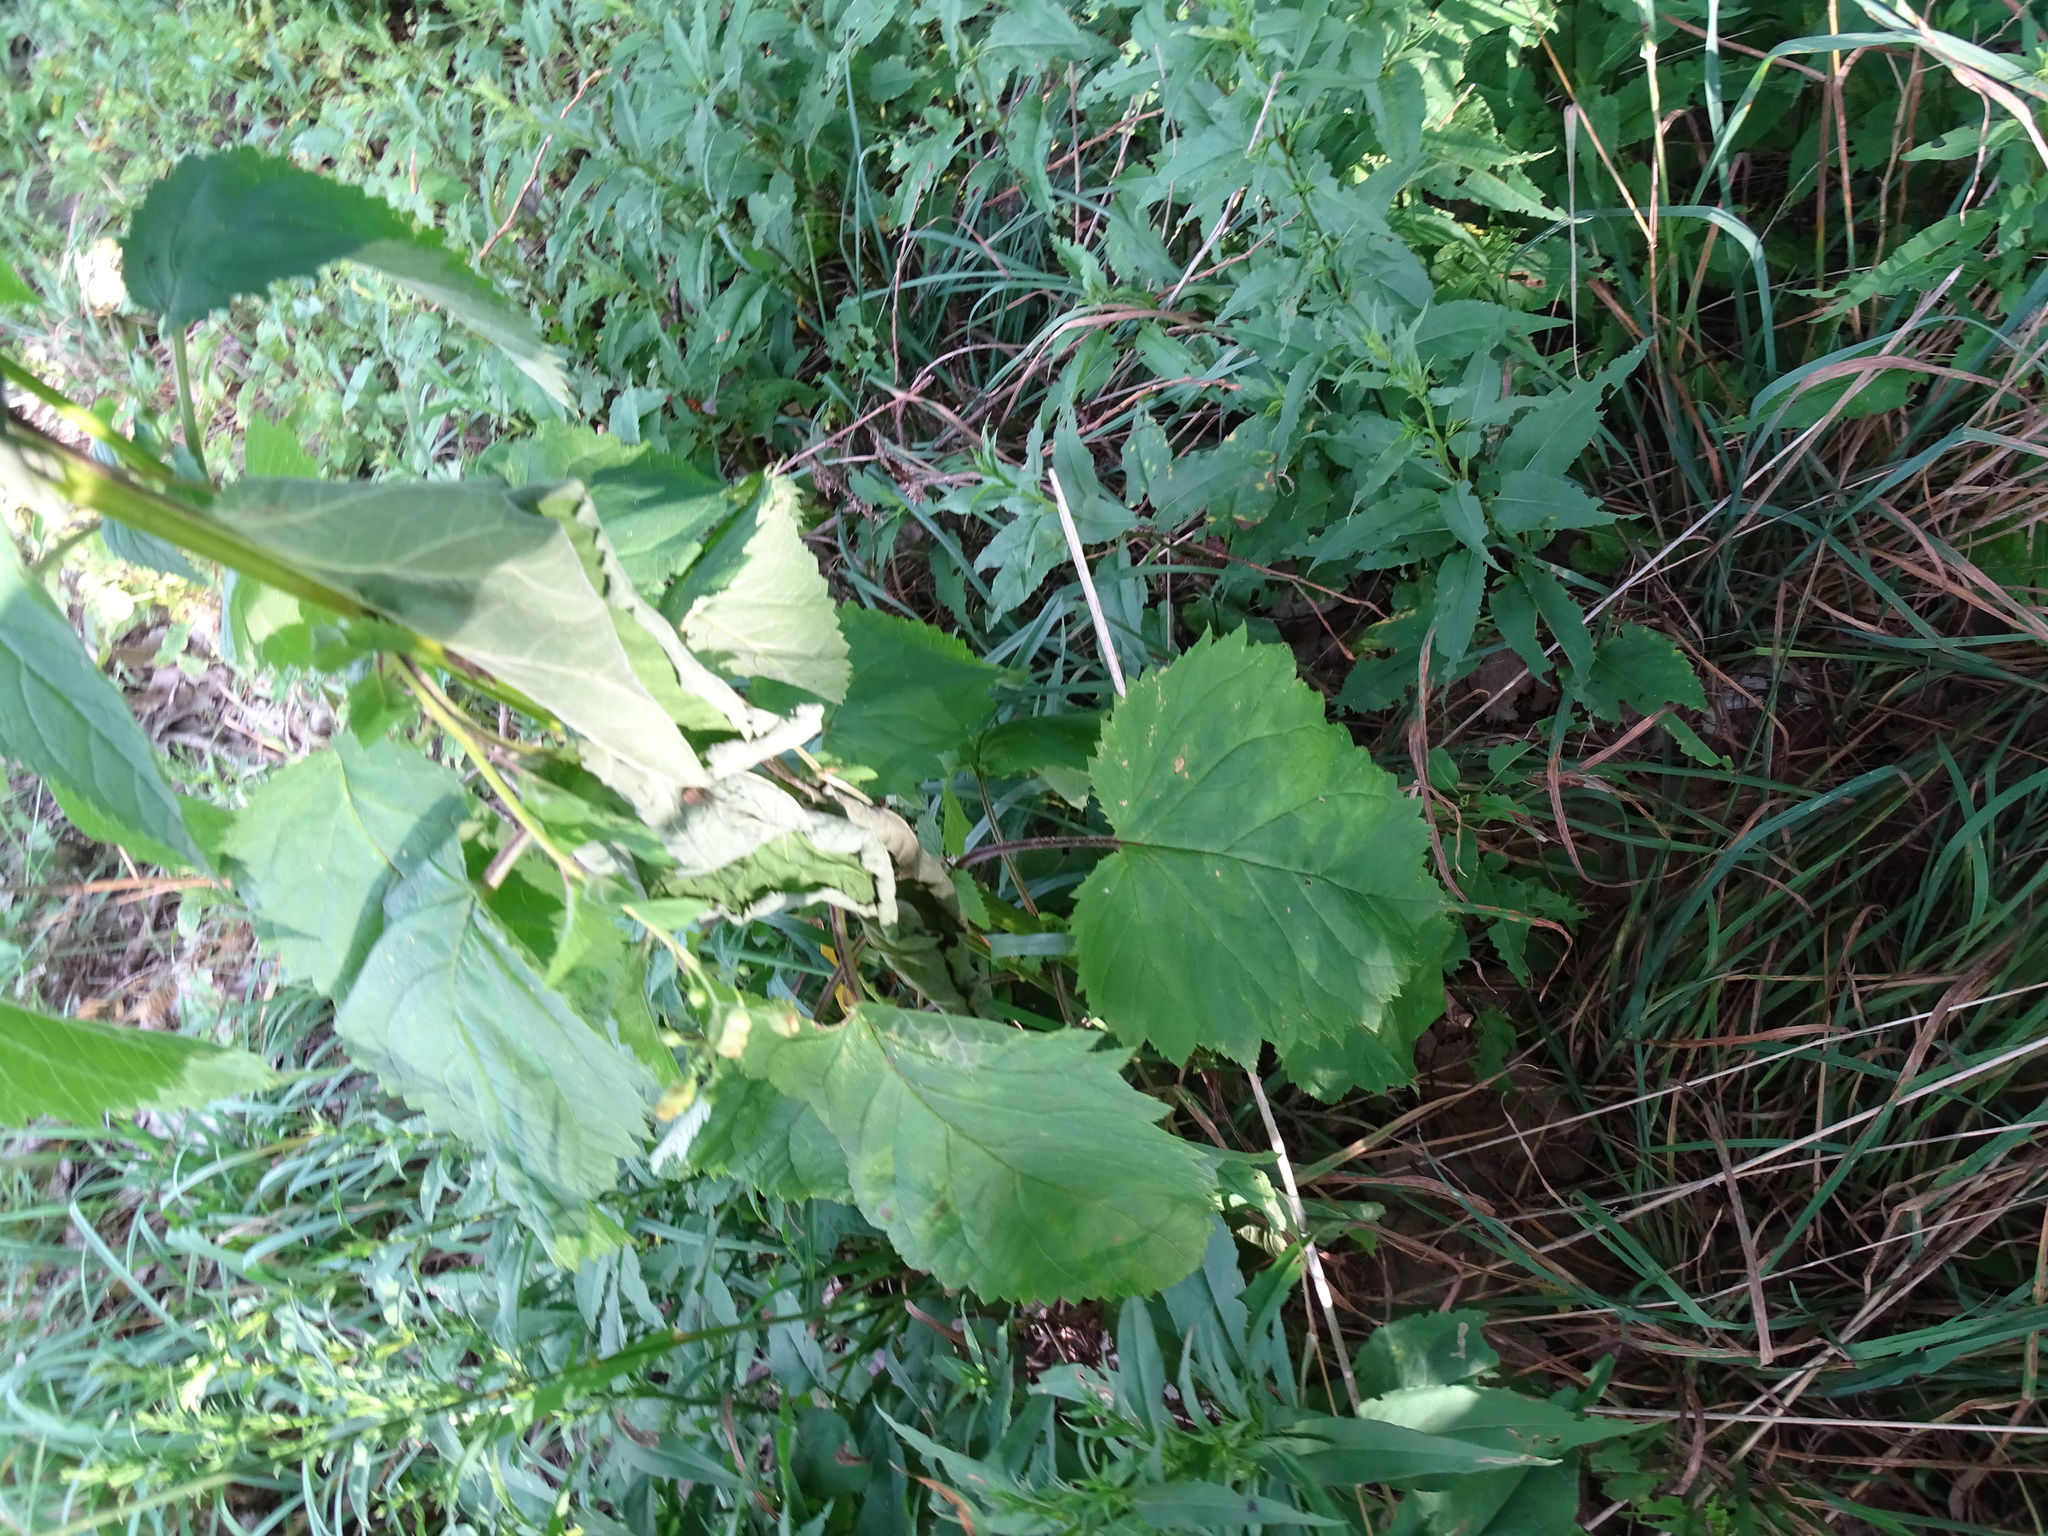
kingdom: Plantae
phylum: Tracheophyta
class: Magnoliopsida
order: Lamiales
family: Scrophulariaceae
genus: Scrophularia
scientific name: Scrophularia marilandica
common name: Eastern figwort
